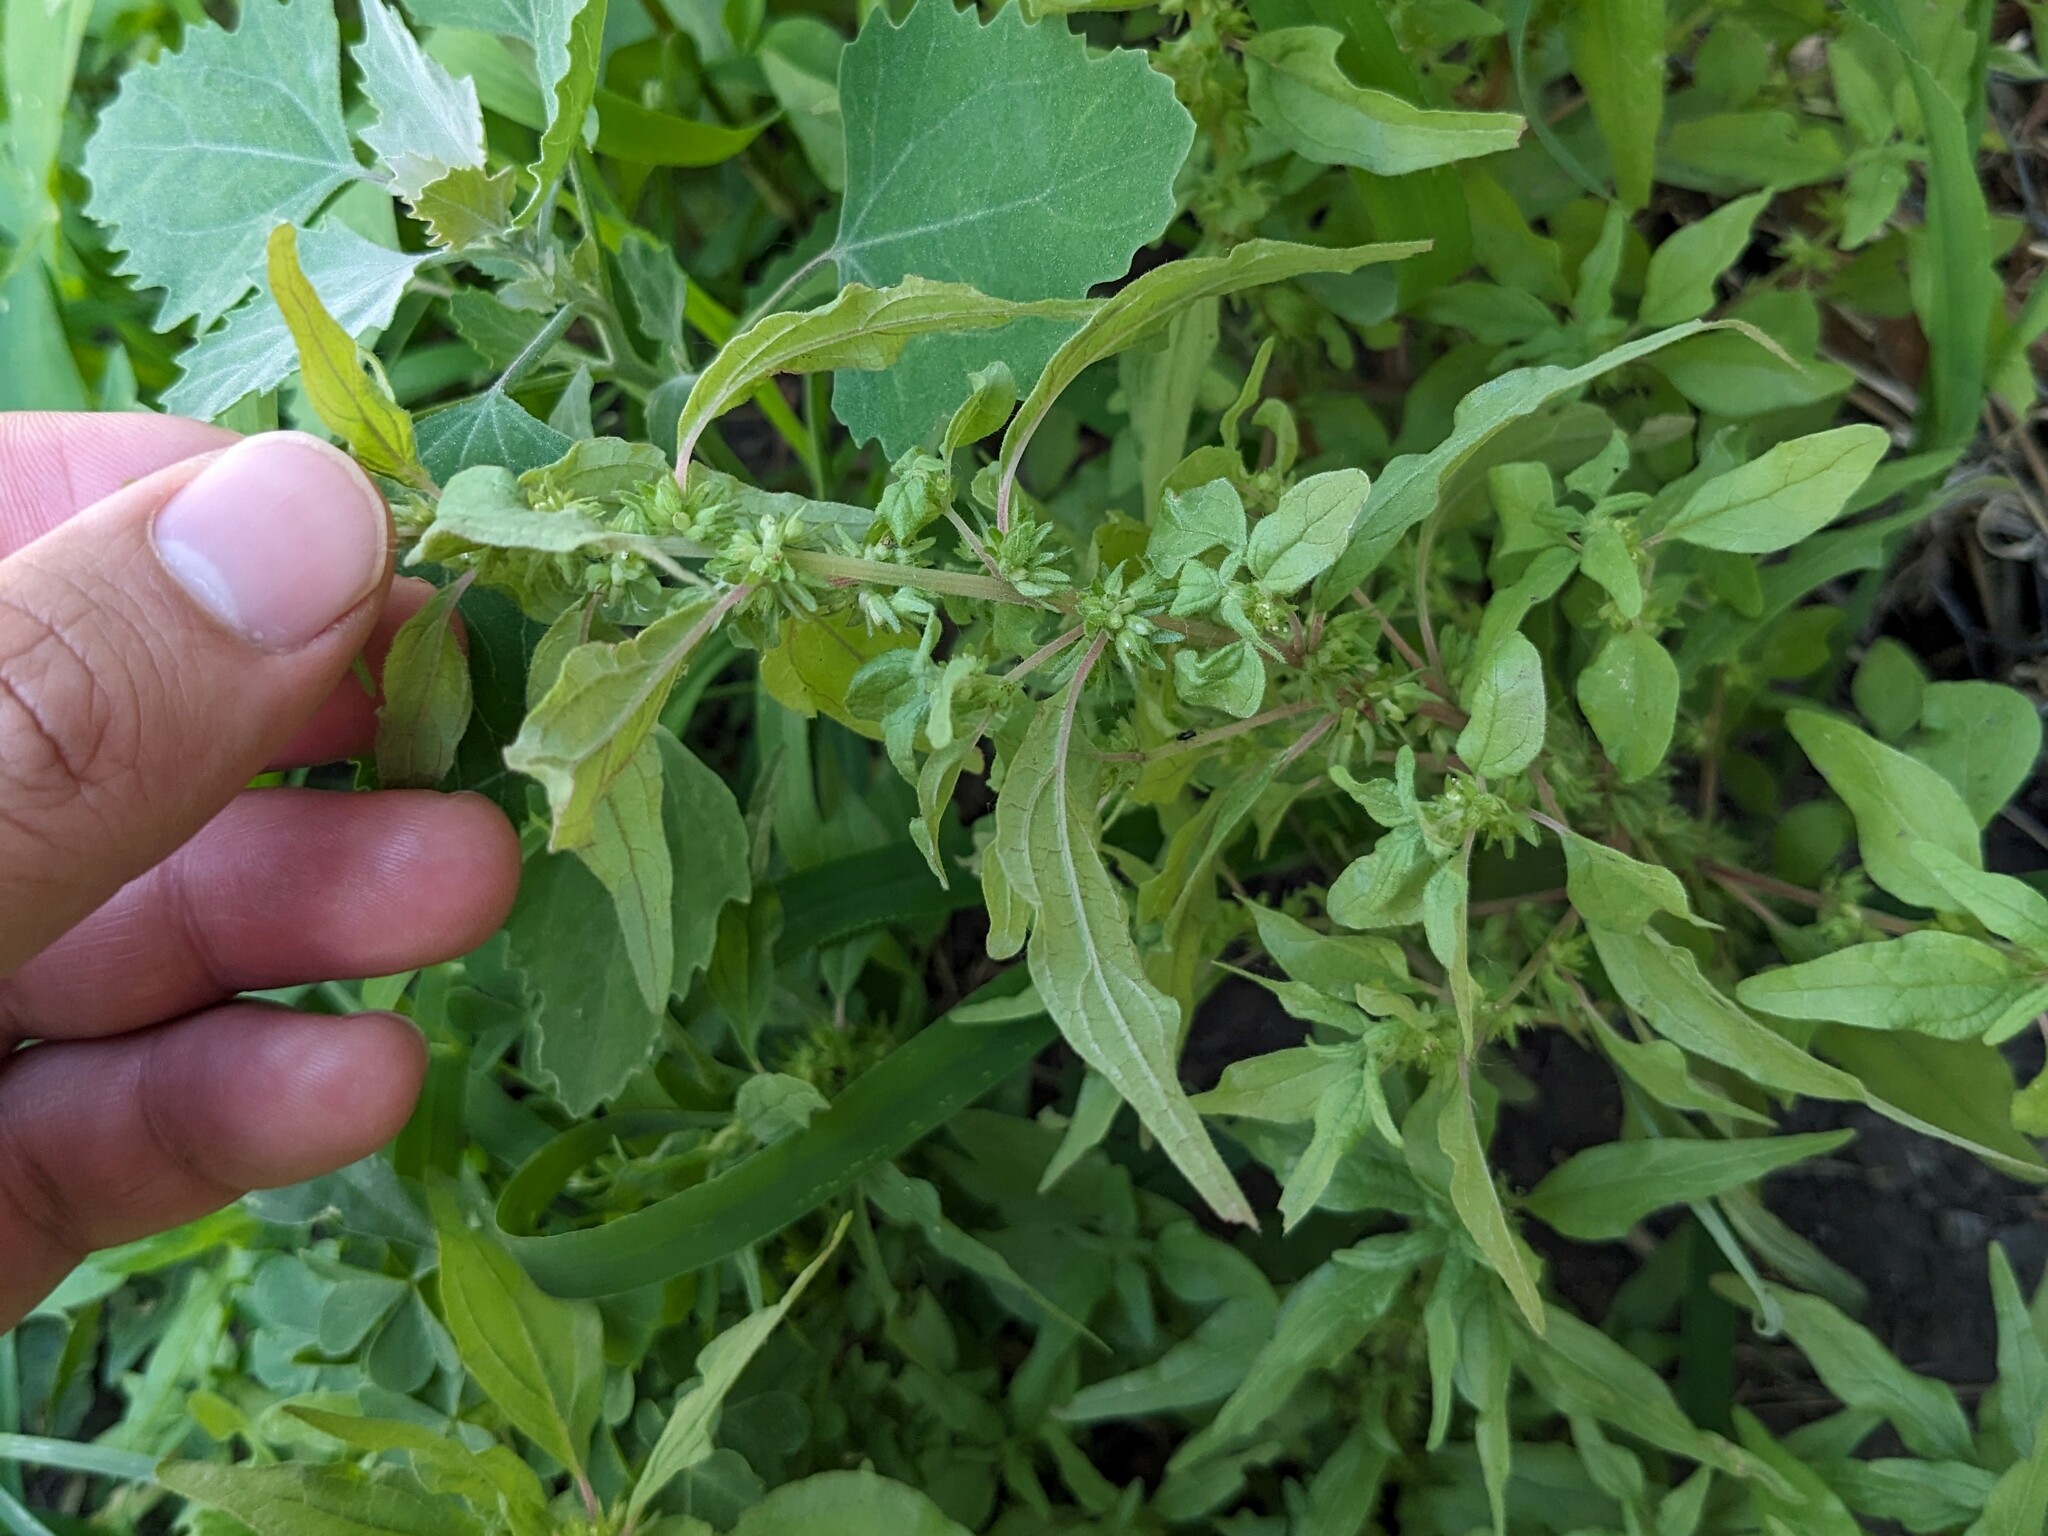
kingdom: Plantae
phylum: Tracheophyta
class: Magnoliopsida
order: Rosales
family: Urticaceae
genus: Parietaria
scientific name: Parietaria pensylvanica
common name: Pennsylvania pellitory
